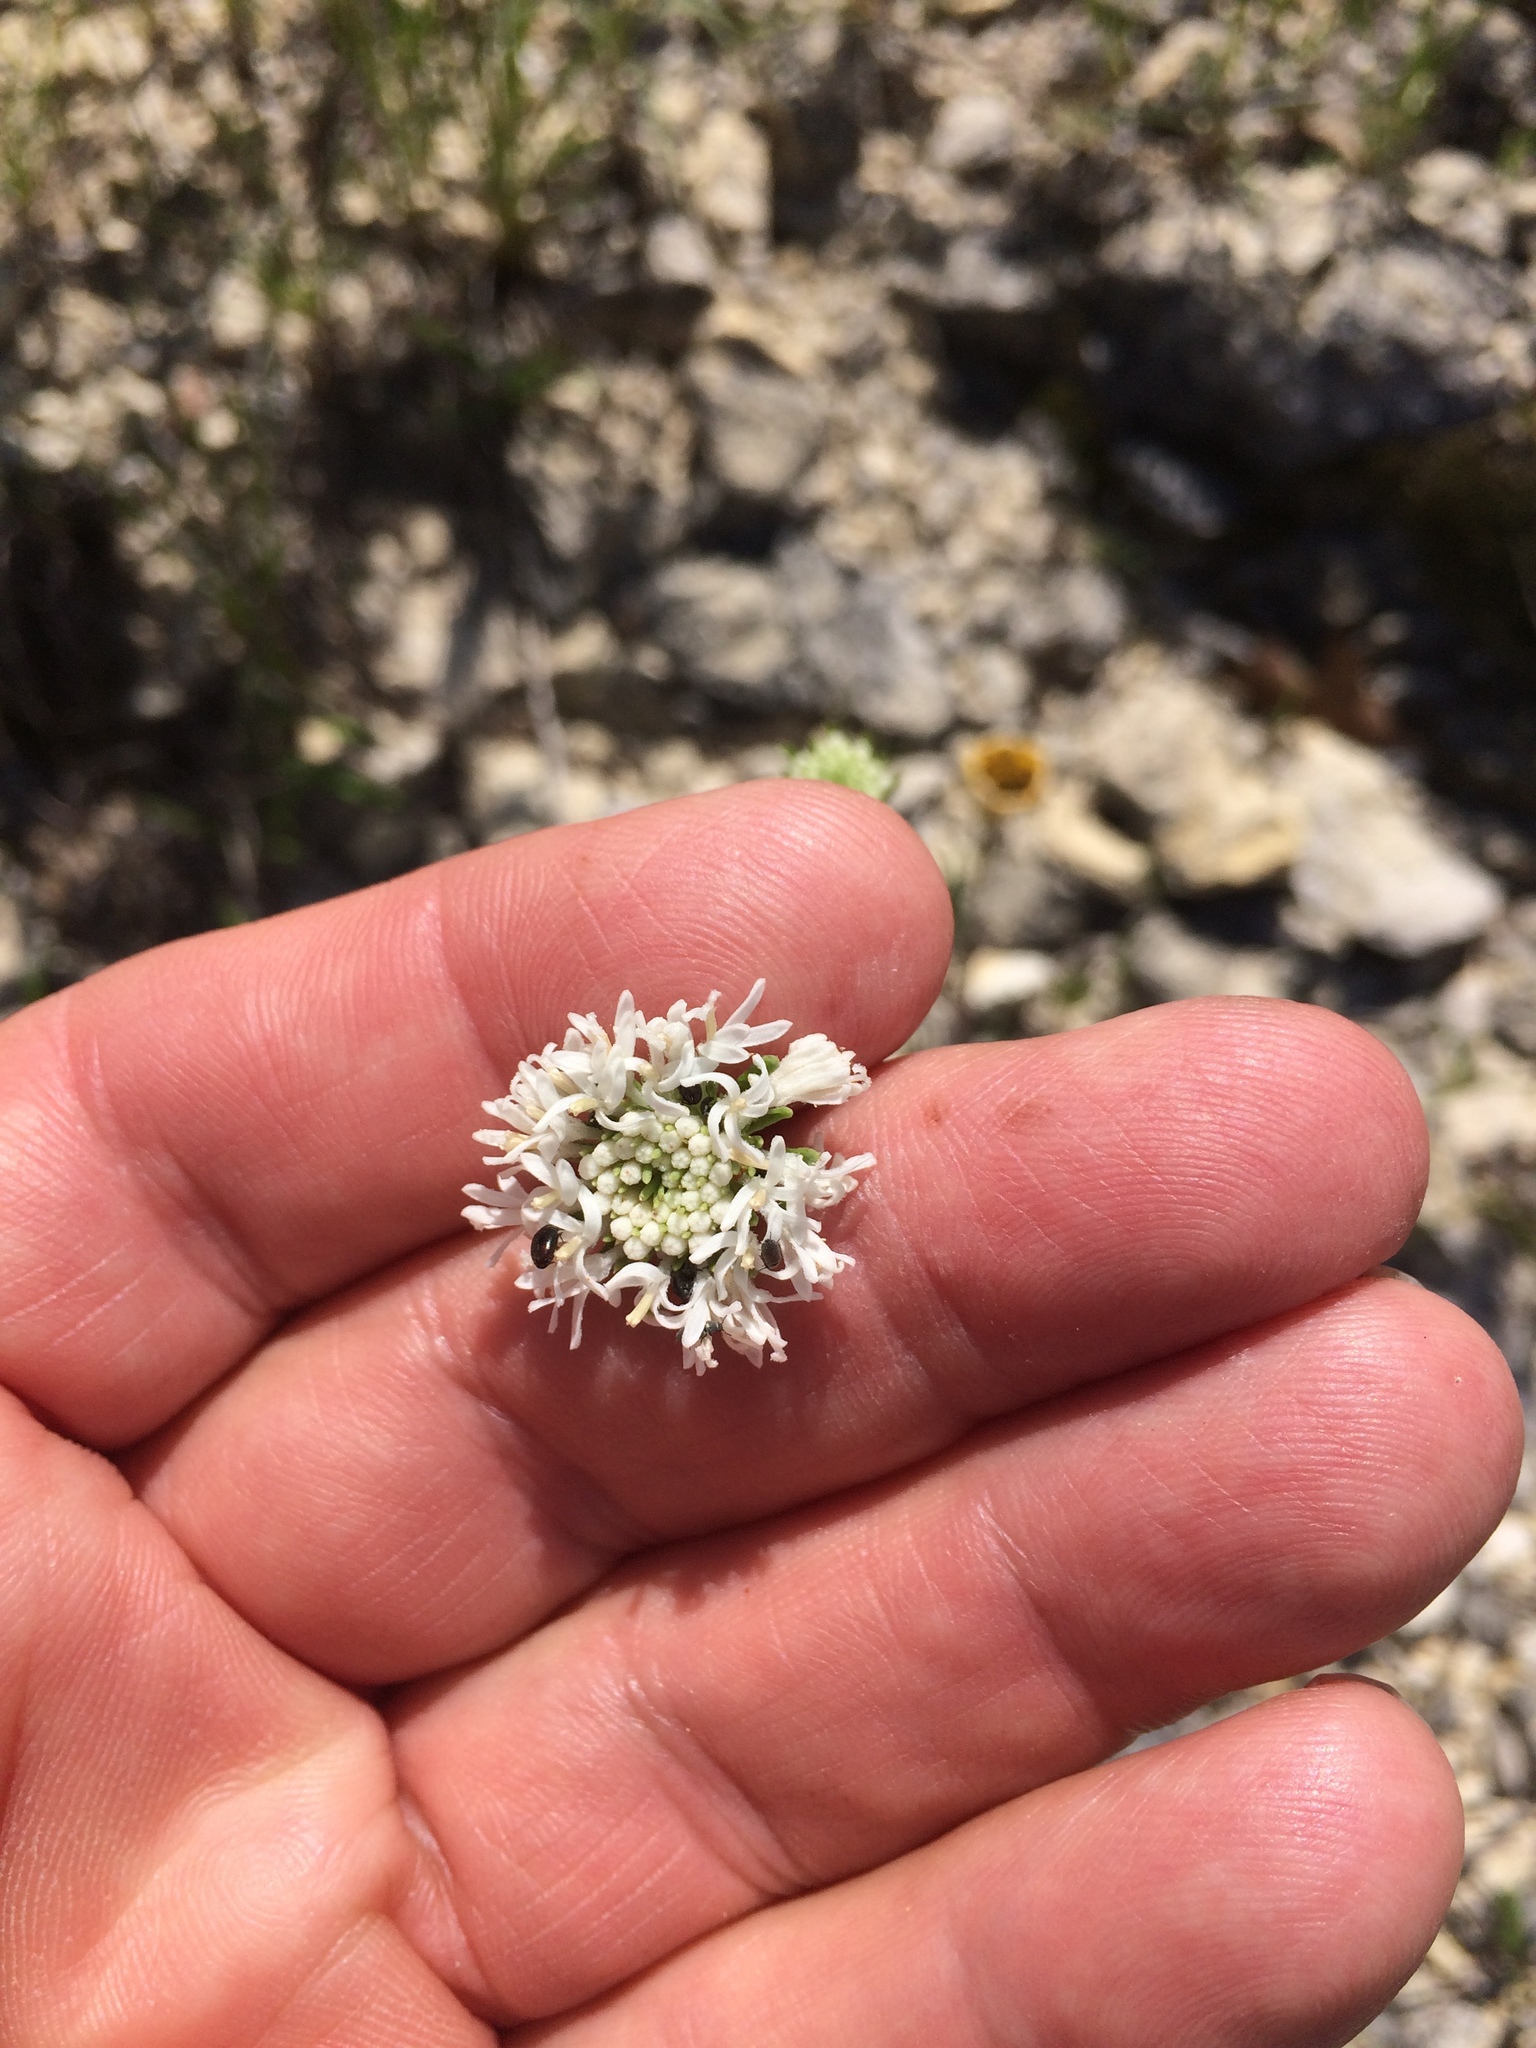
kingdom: Plantae
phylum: Tracheophyta
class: Magnoliopsida
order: Asterales
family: Asteraceae
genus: Marshallia
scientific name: Marshallia caespitosa
